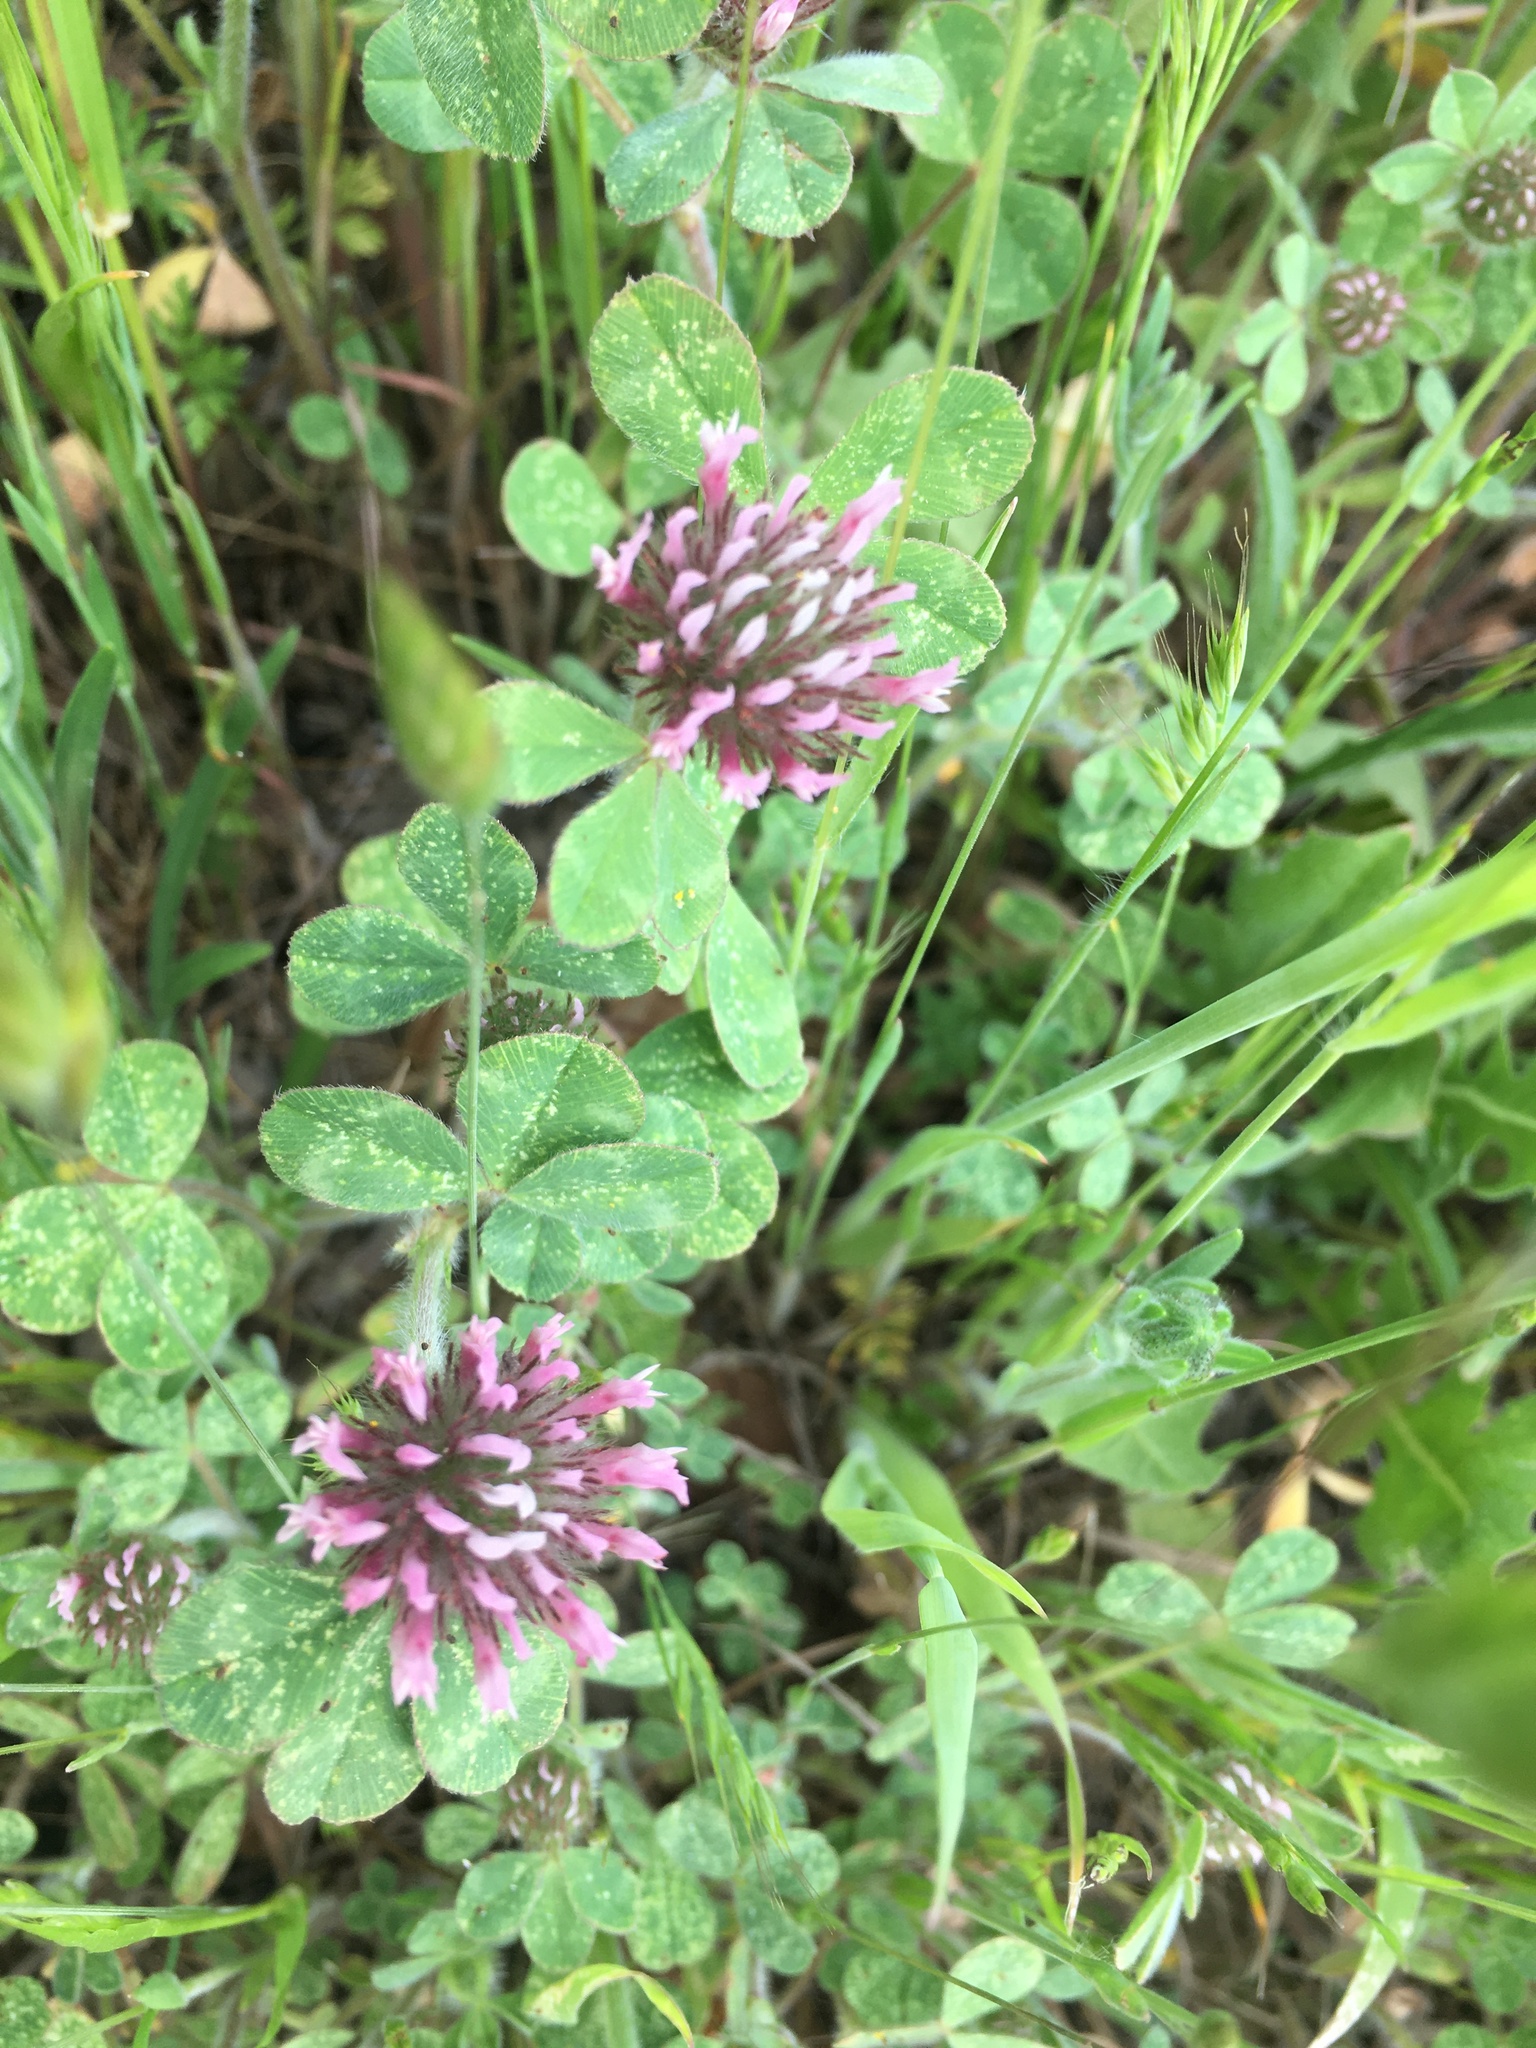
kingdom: Plantae
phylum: Tracheophyta
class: Magnoliopsida
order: Fabales
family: Fabaceae
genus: Trifolium
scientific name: Trifolium hirtum
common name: Rose clover
